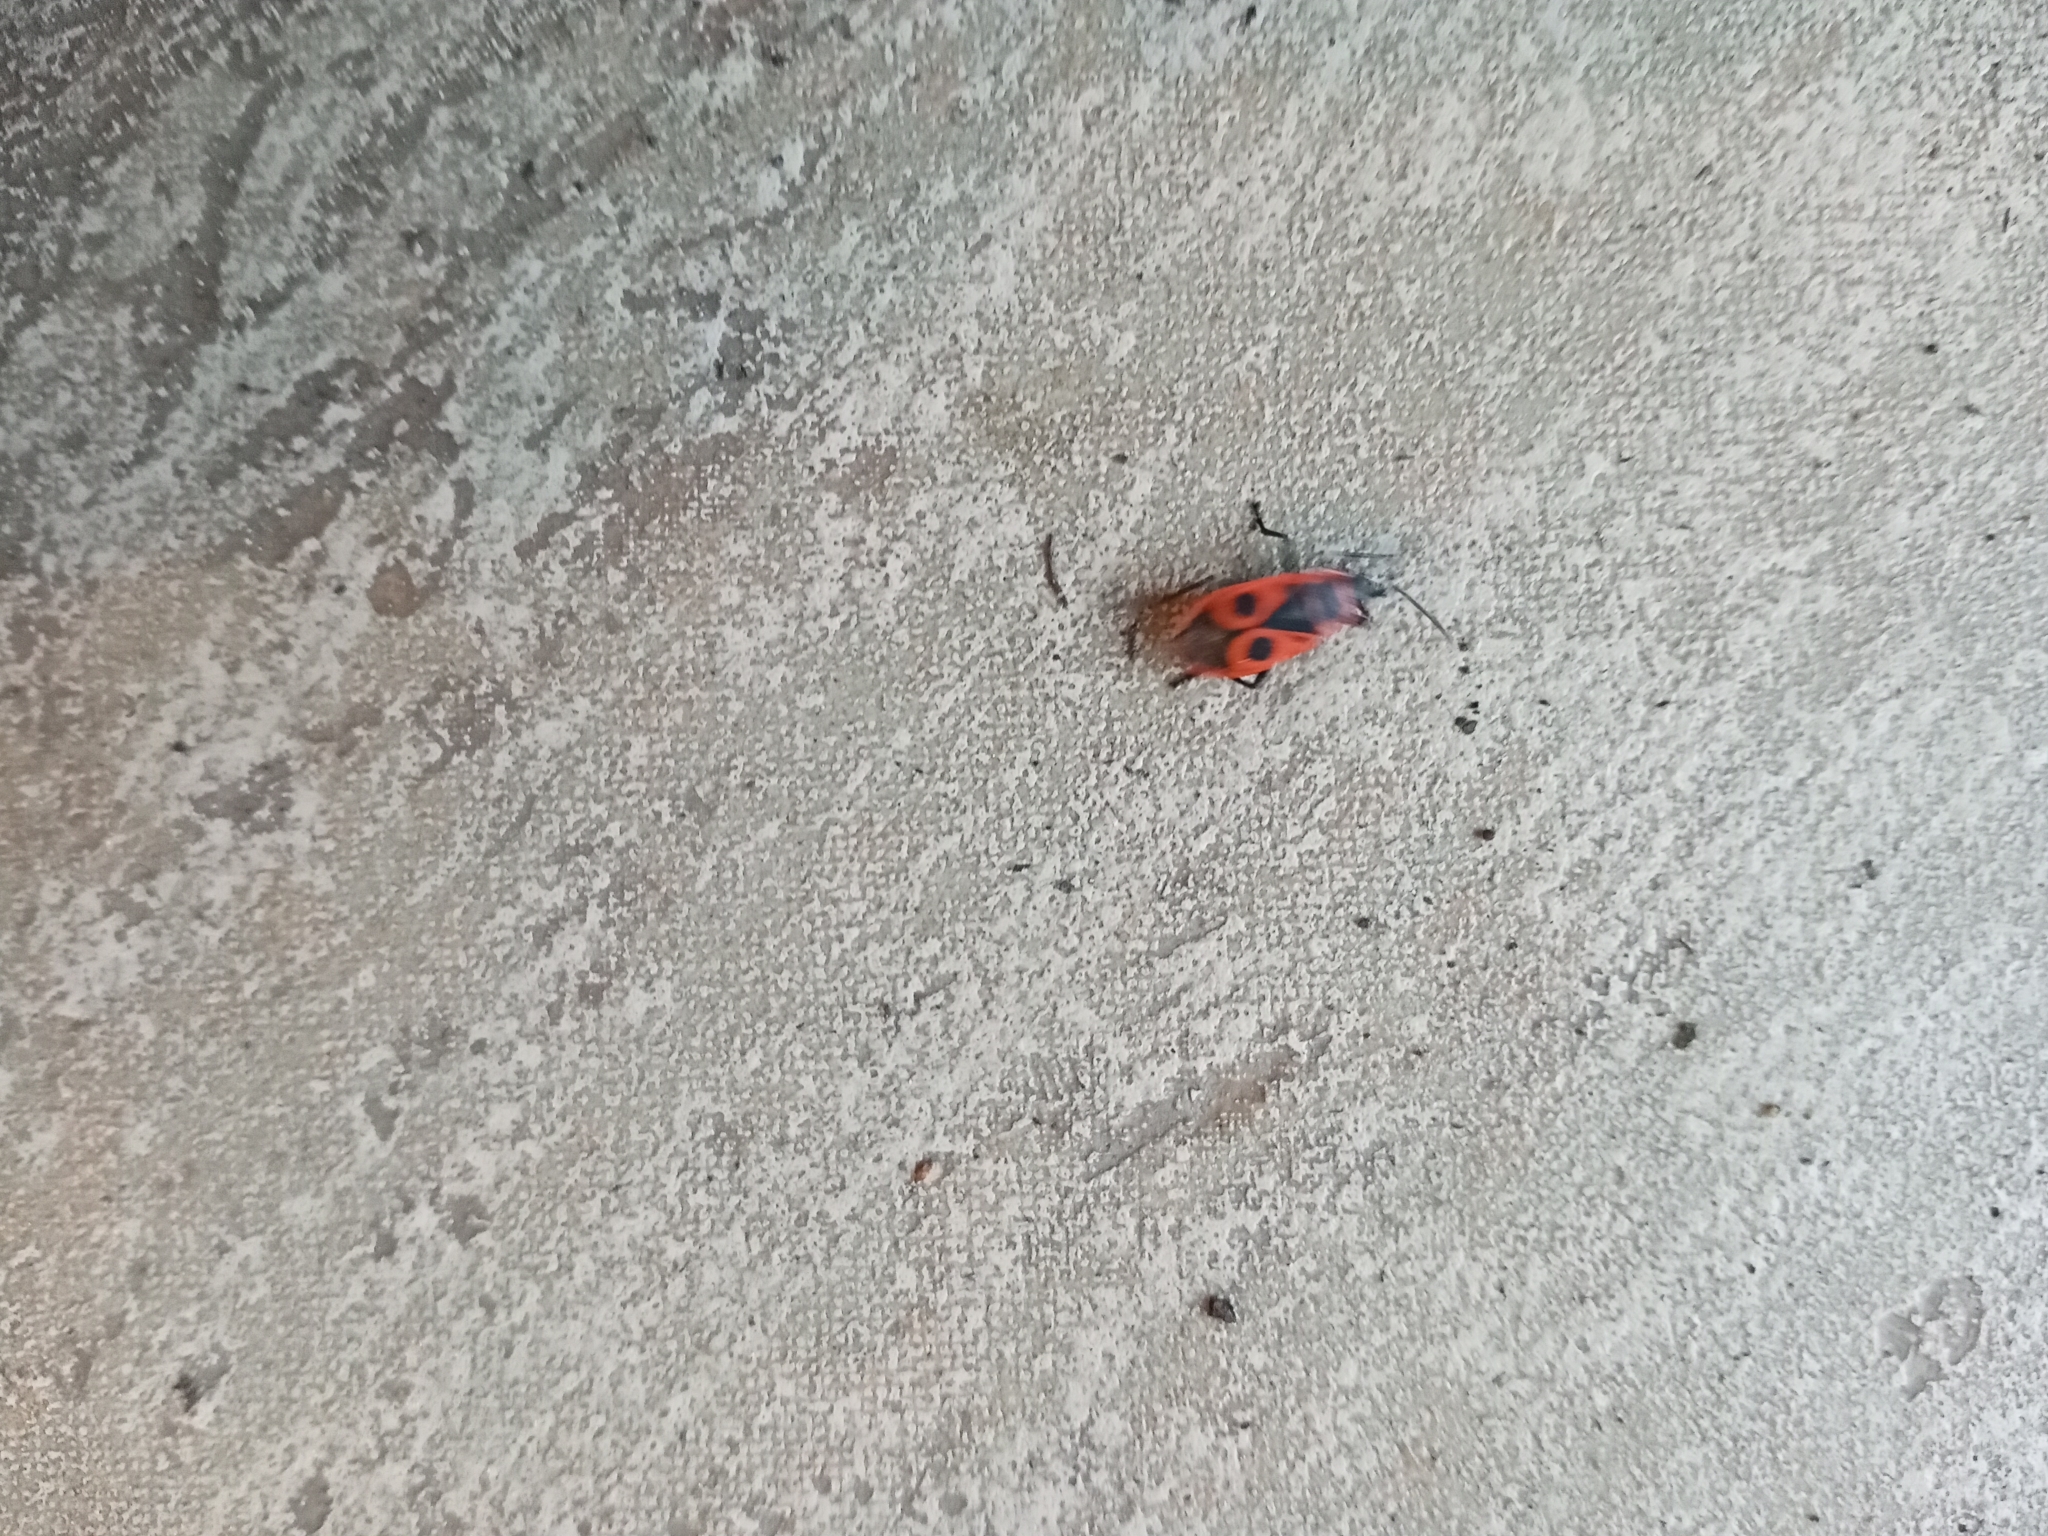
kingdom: Animalia
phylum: Arthropoda
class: Insecta
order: Hemiptera
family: Pyrrhocoridae
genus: Pyrrhocoris
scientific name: Pyrrhocoris apterus
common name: Firebug
